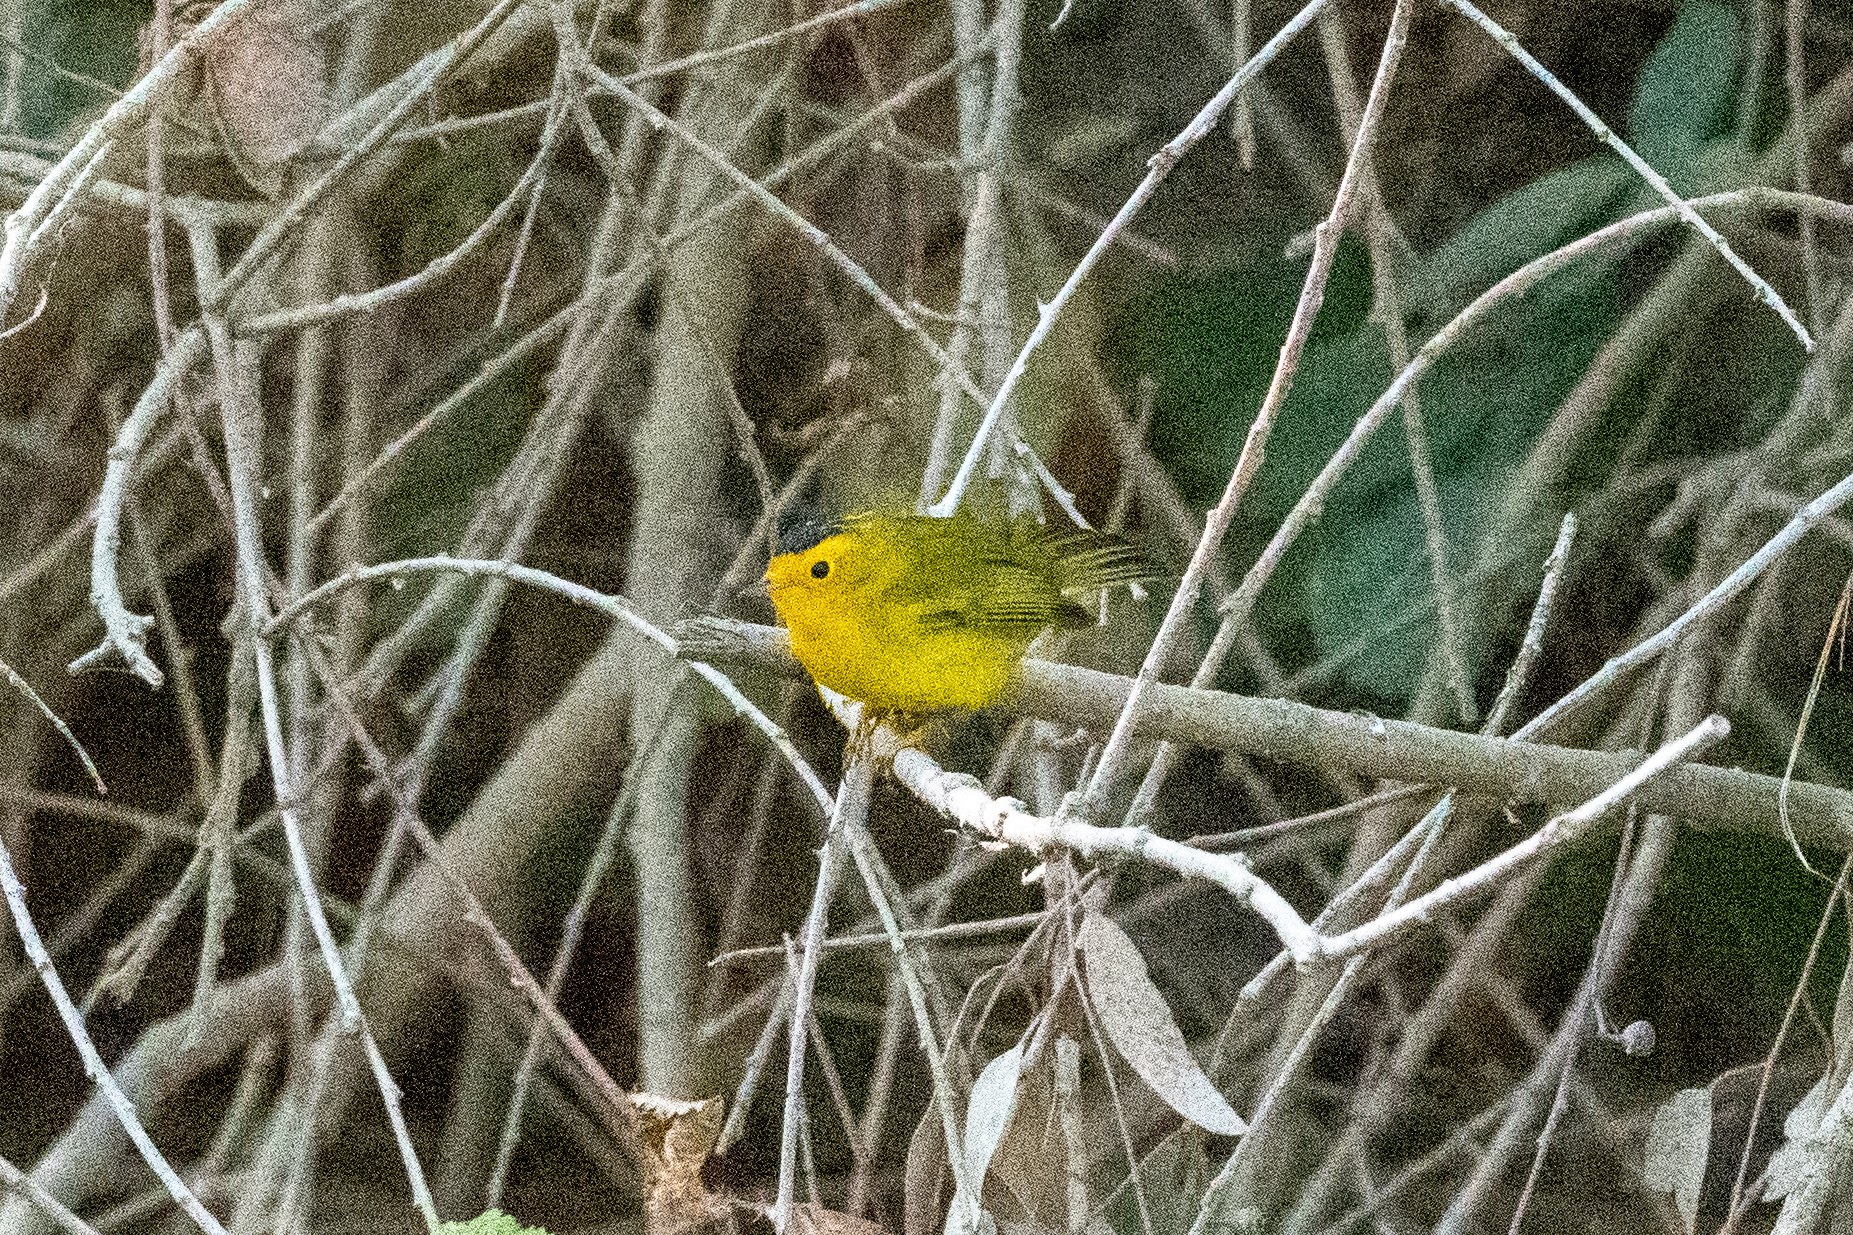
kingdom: Animalia
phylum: Chordata
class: Aves
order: Passeriformes
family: Parulidae
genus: Cardellina
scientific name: Cardellina pusilla
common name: Wilson's warbler
